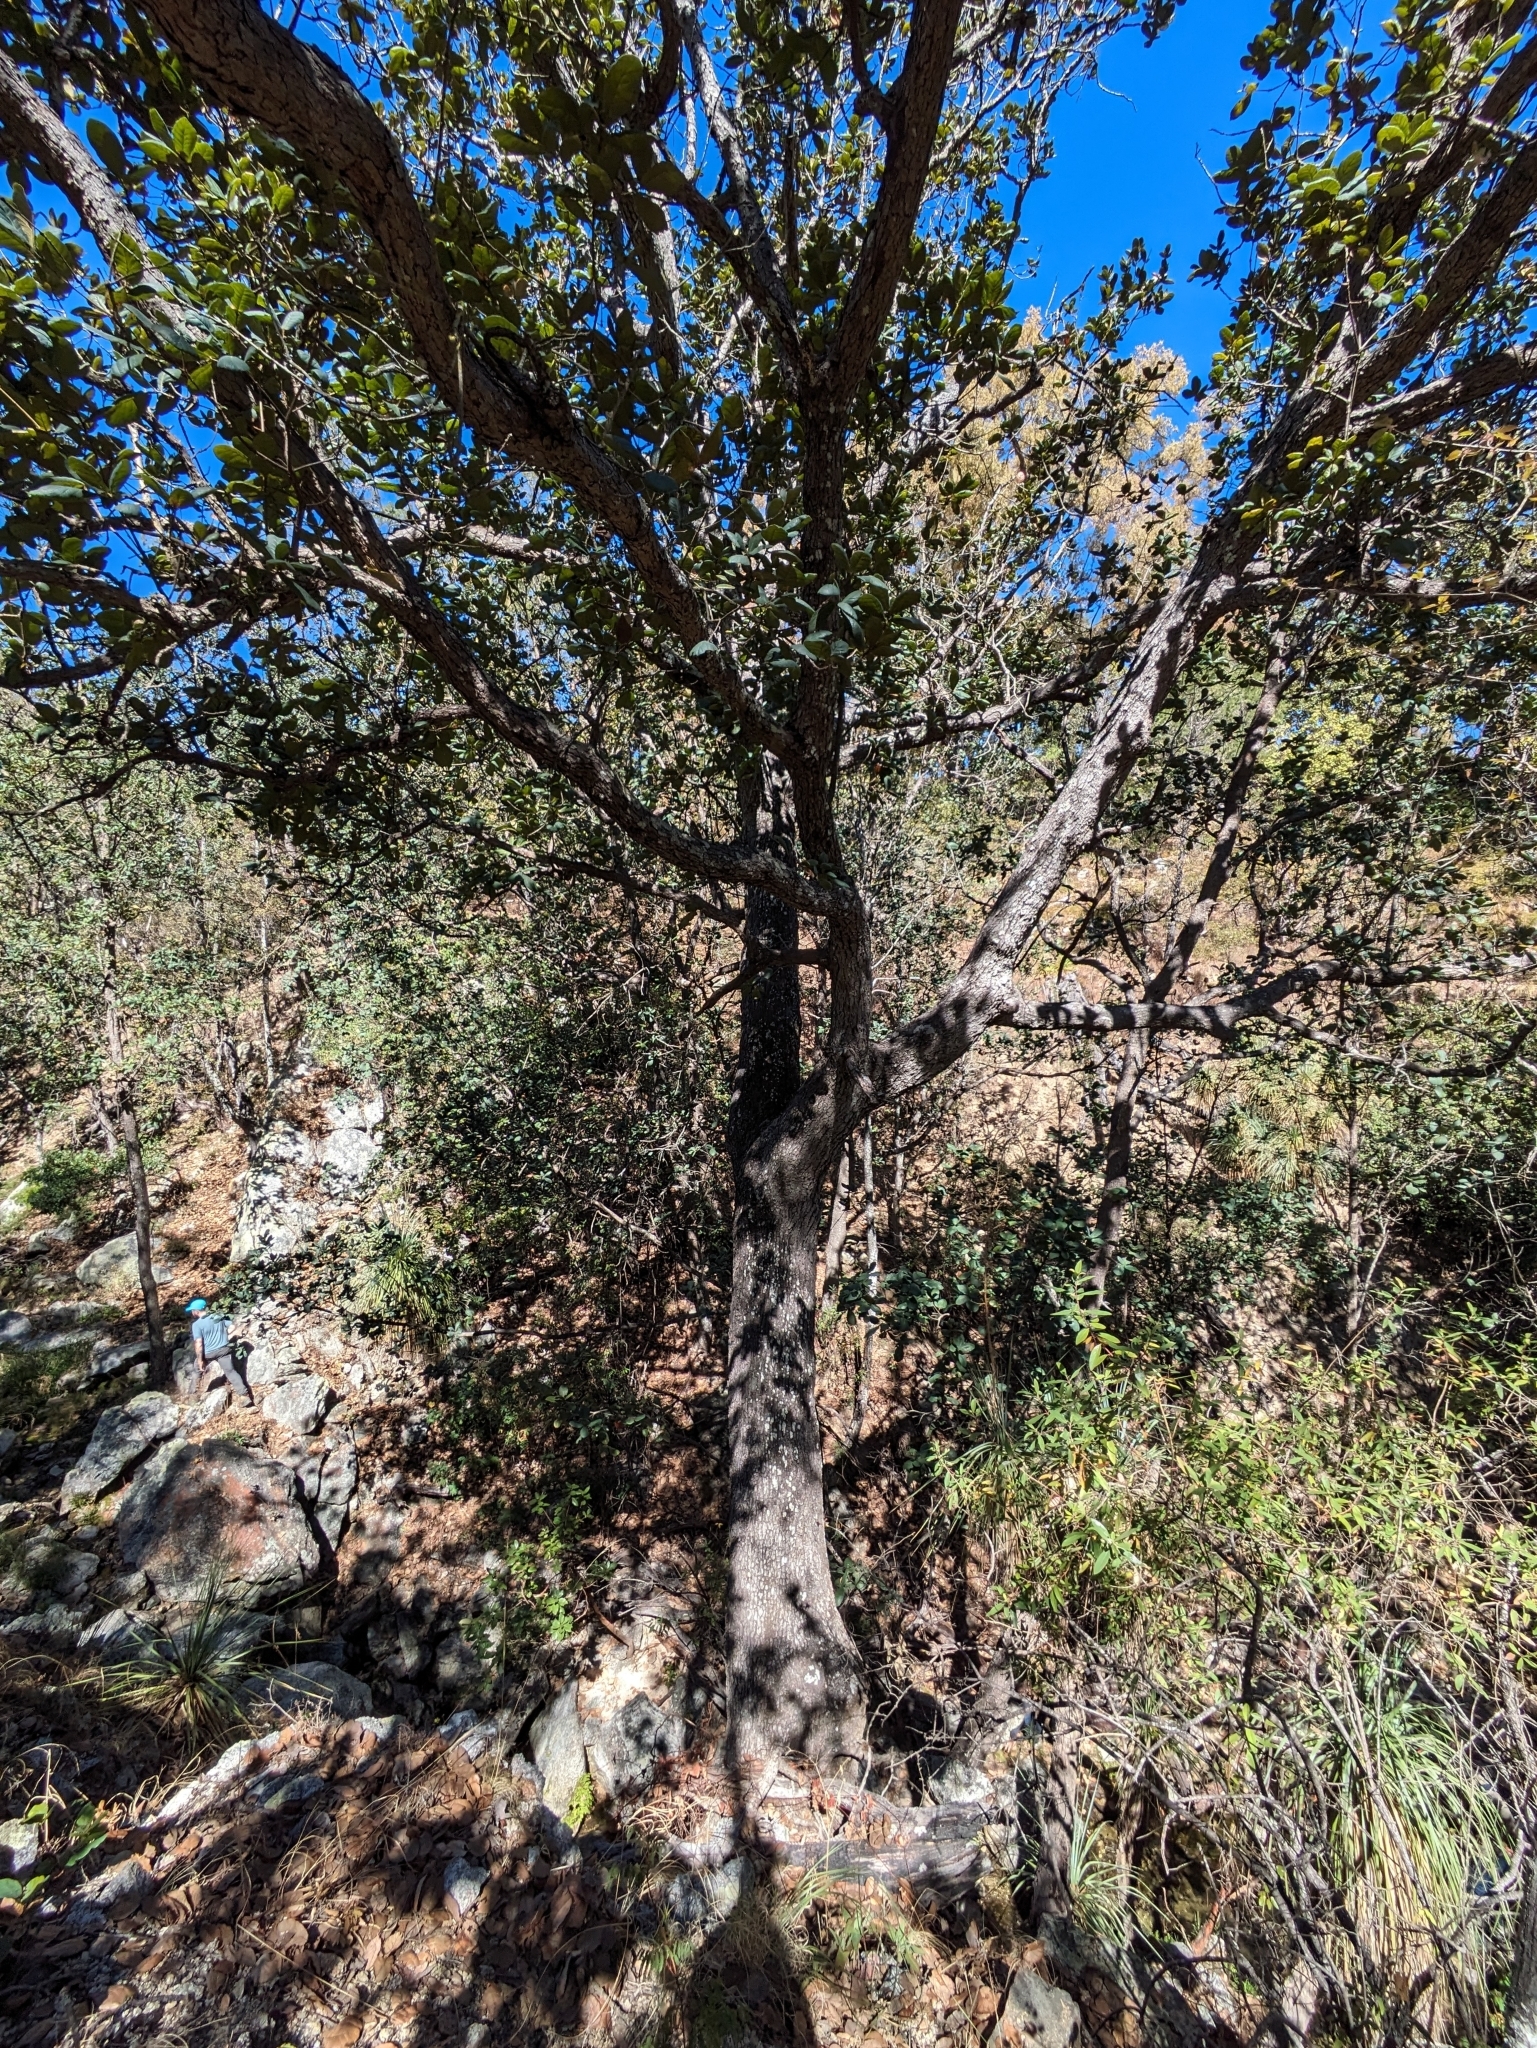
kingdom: Plantae
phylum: Tracheophyta
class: Magnoliopsida
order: Fagales
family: Fagaceae
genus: Quercus
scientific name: Quercus rugosa
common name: Netleaf oak
